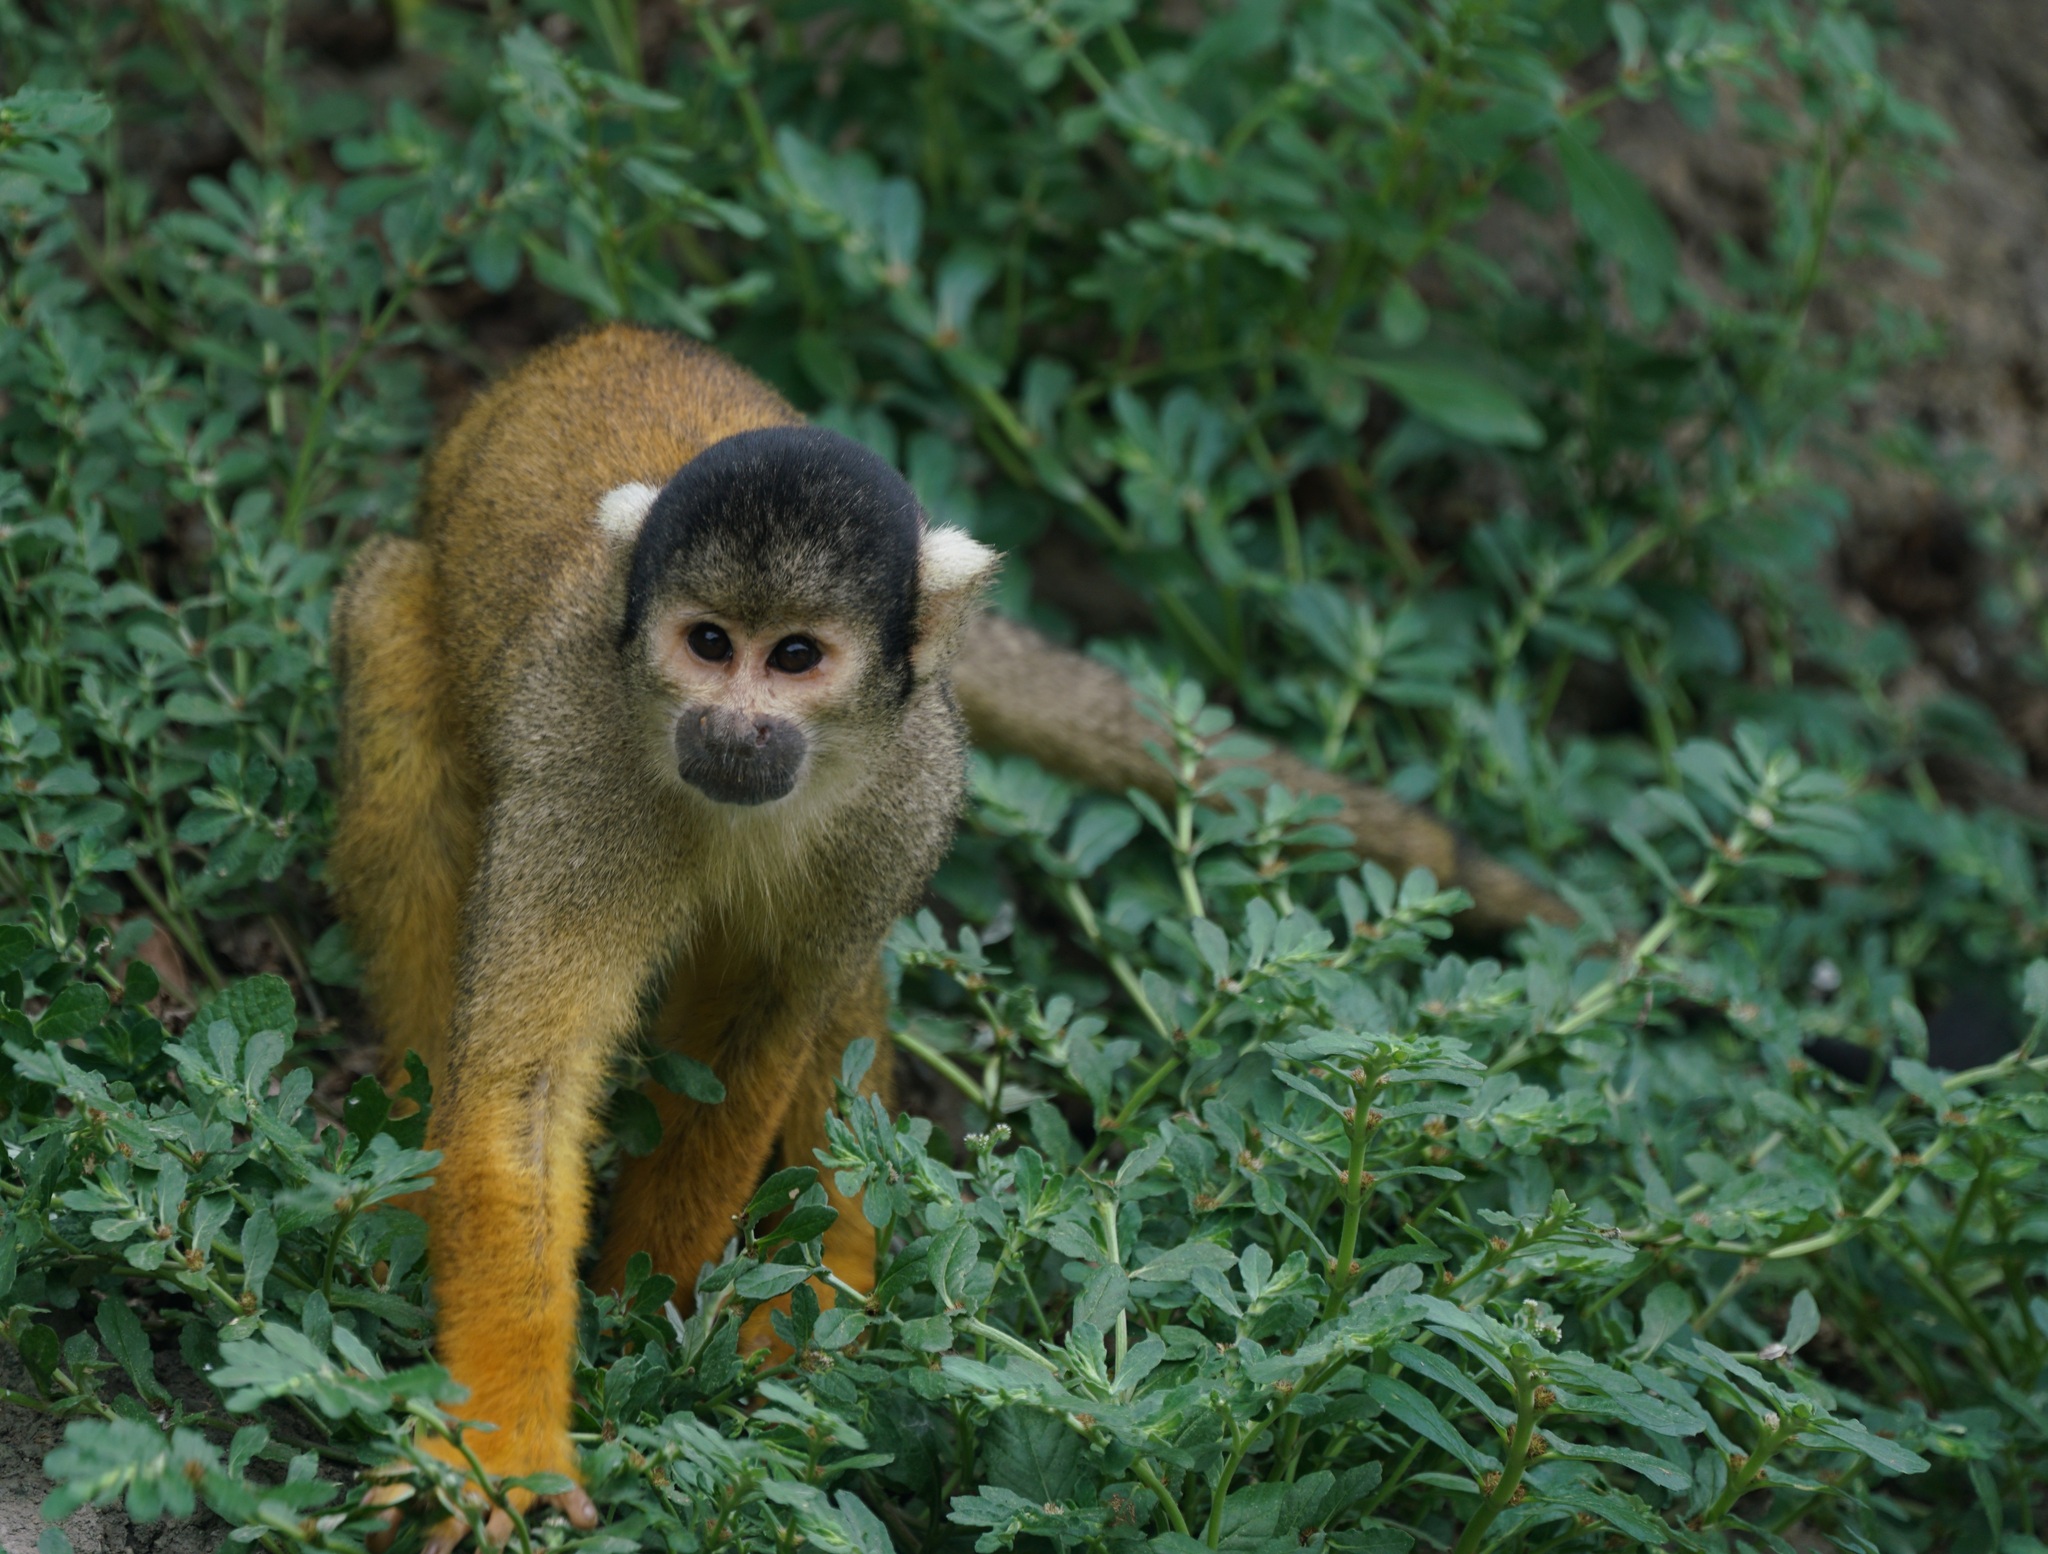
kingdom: Animalia
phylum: Chordata
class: Mammalia
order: Primates
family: Cebidae
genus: Saimiri
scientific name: Saimiri boliviensis
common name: Black-capped squirrel monkey
